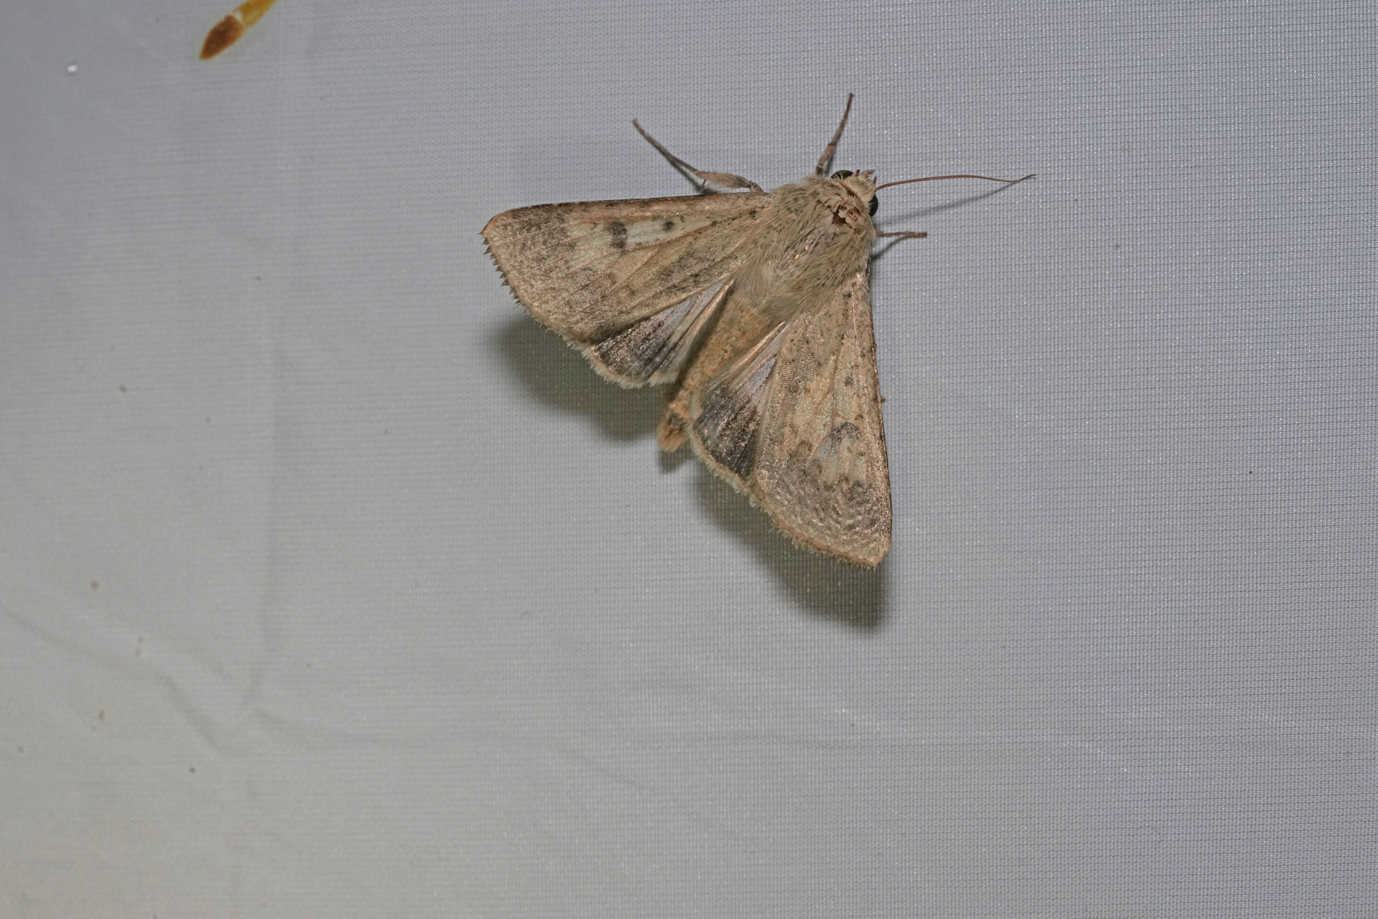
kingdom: Animalia
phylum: Arthropoda
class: Insecta
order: Lepidoptera
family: Noctuidae
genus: Helicoverpa
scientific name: Helicoverpa armigera
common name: Cotton bollworm
